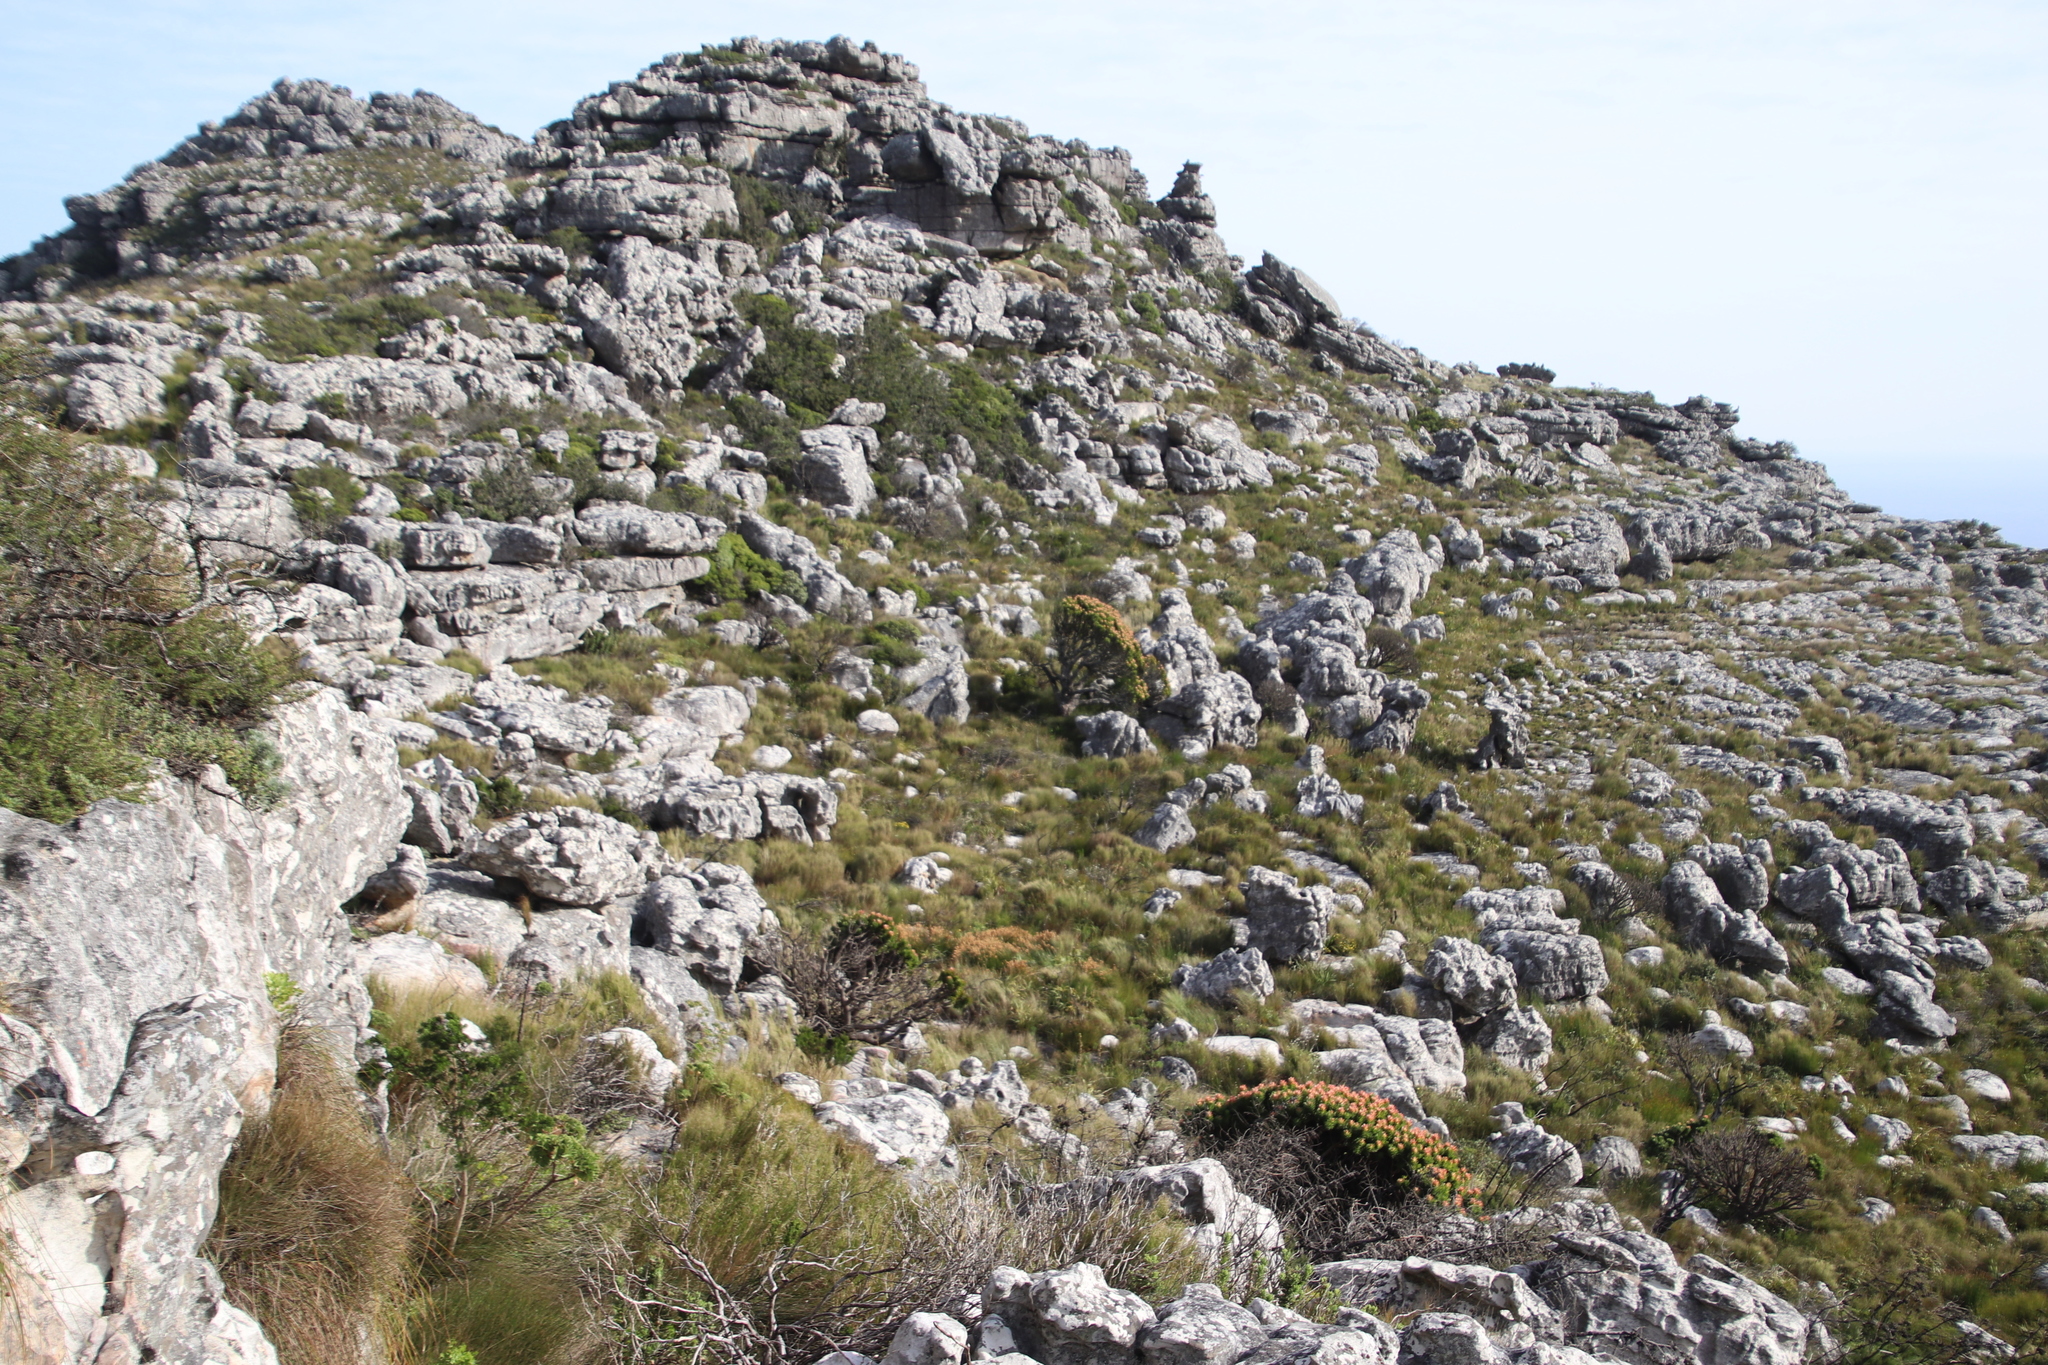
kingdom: Plantae
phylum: Tracheophyta
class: Magnoliopsida
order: Proteales
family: Proteaceae
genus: Mimetes
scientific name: Mimetes fimbriifolius
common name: Fringed bottlebrush
